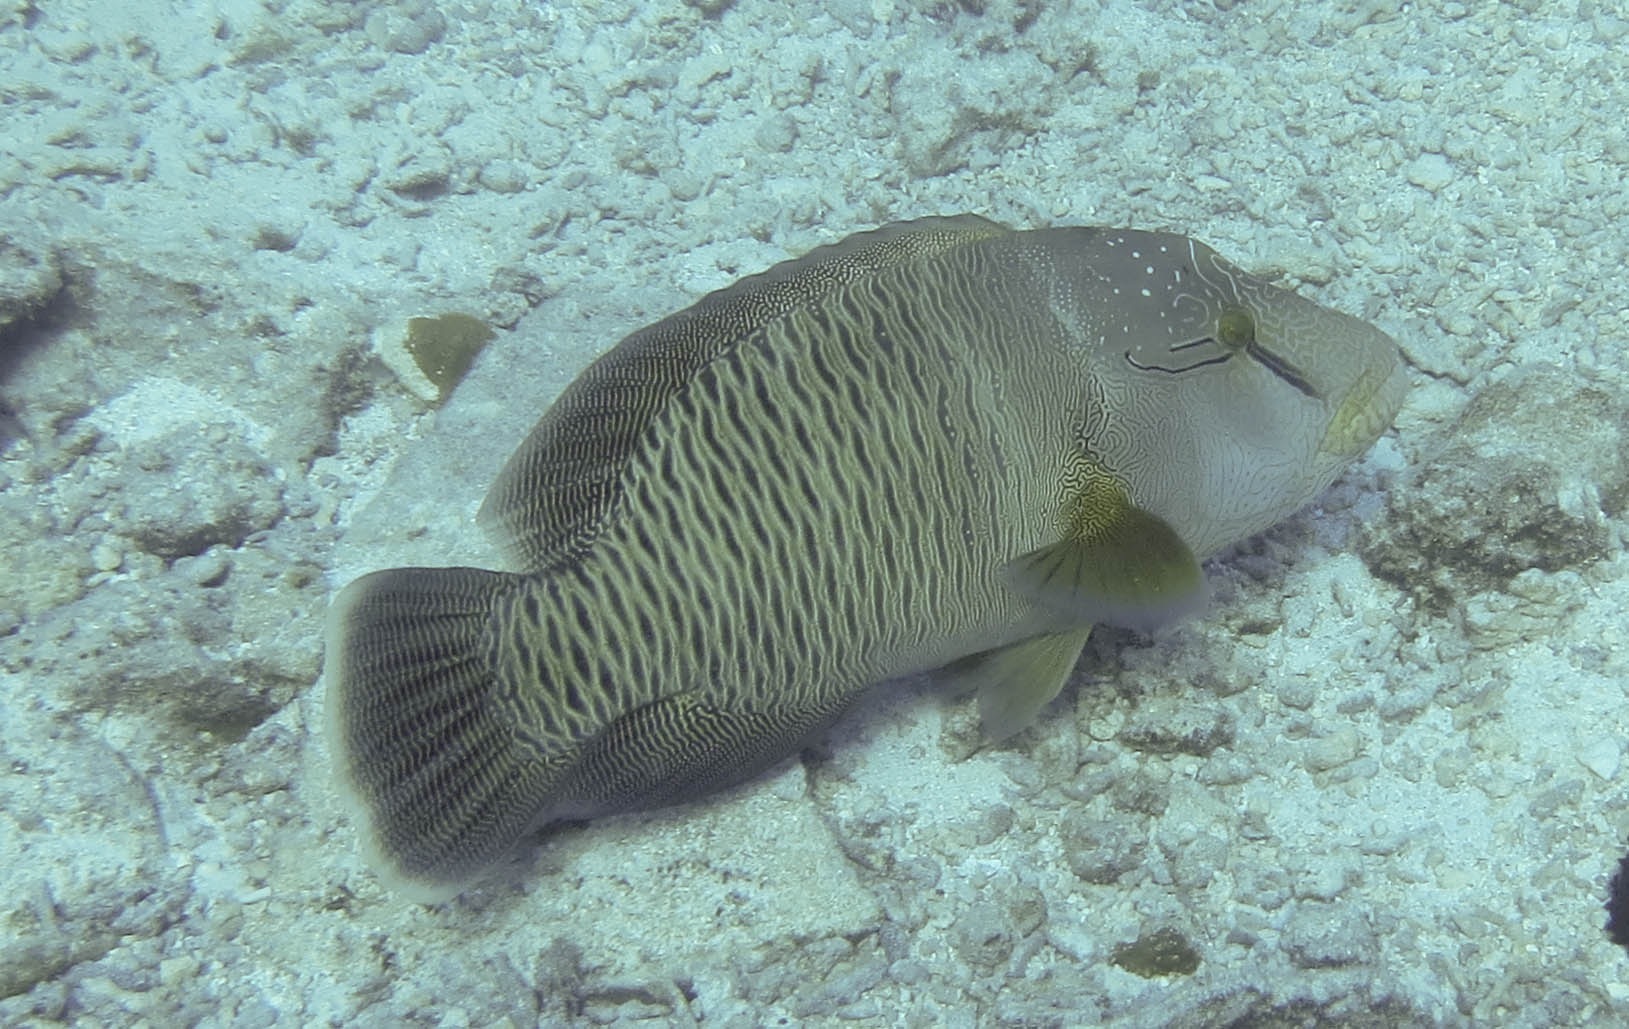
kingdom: Animalia
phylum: Chordata
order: Perciformes
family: Labridae
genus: Cheilinus
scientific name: Cheilinus undulatus
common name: Humphead wrasse
